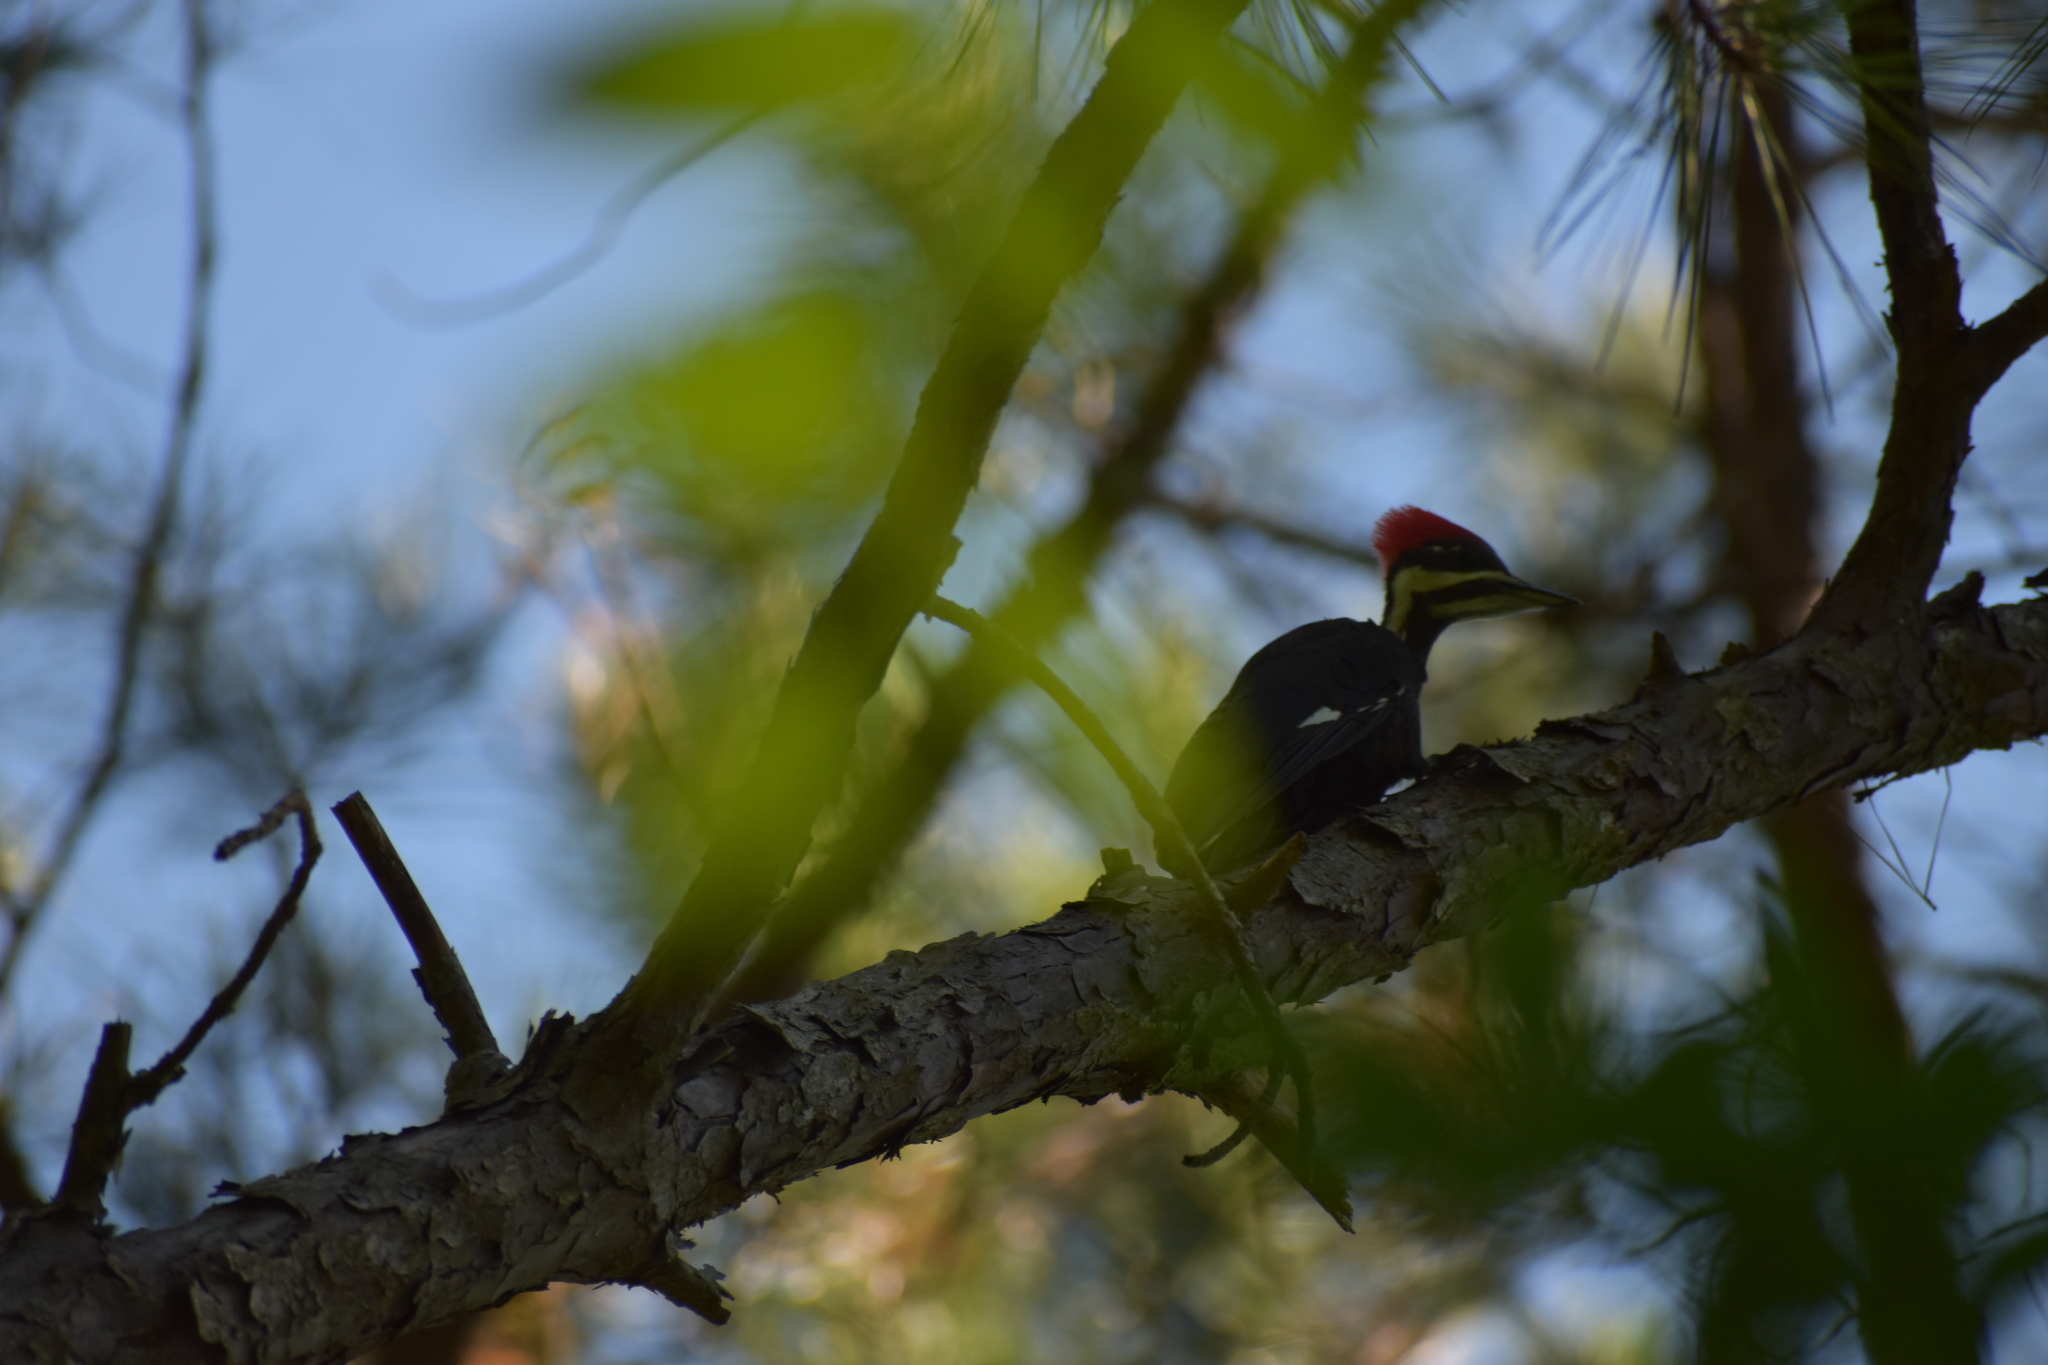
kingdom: Animalia
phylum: Chordata
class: Aves
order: Piciformes
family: Picidae
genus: Dryocopus
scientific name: Dryocopus pileatus
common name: Pileated woodpecker
